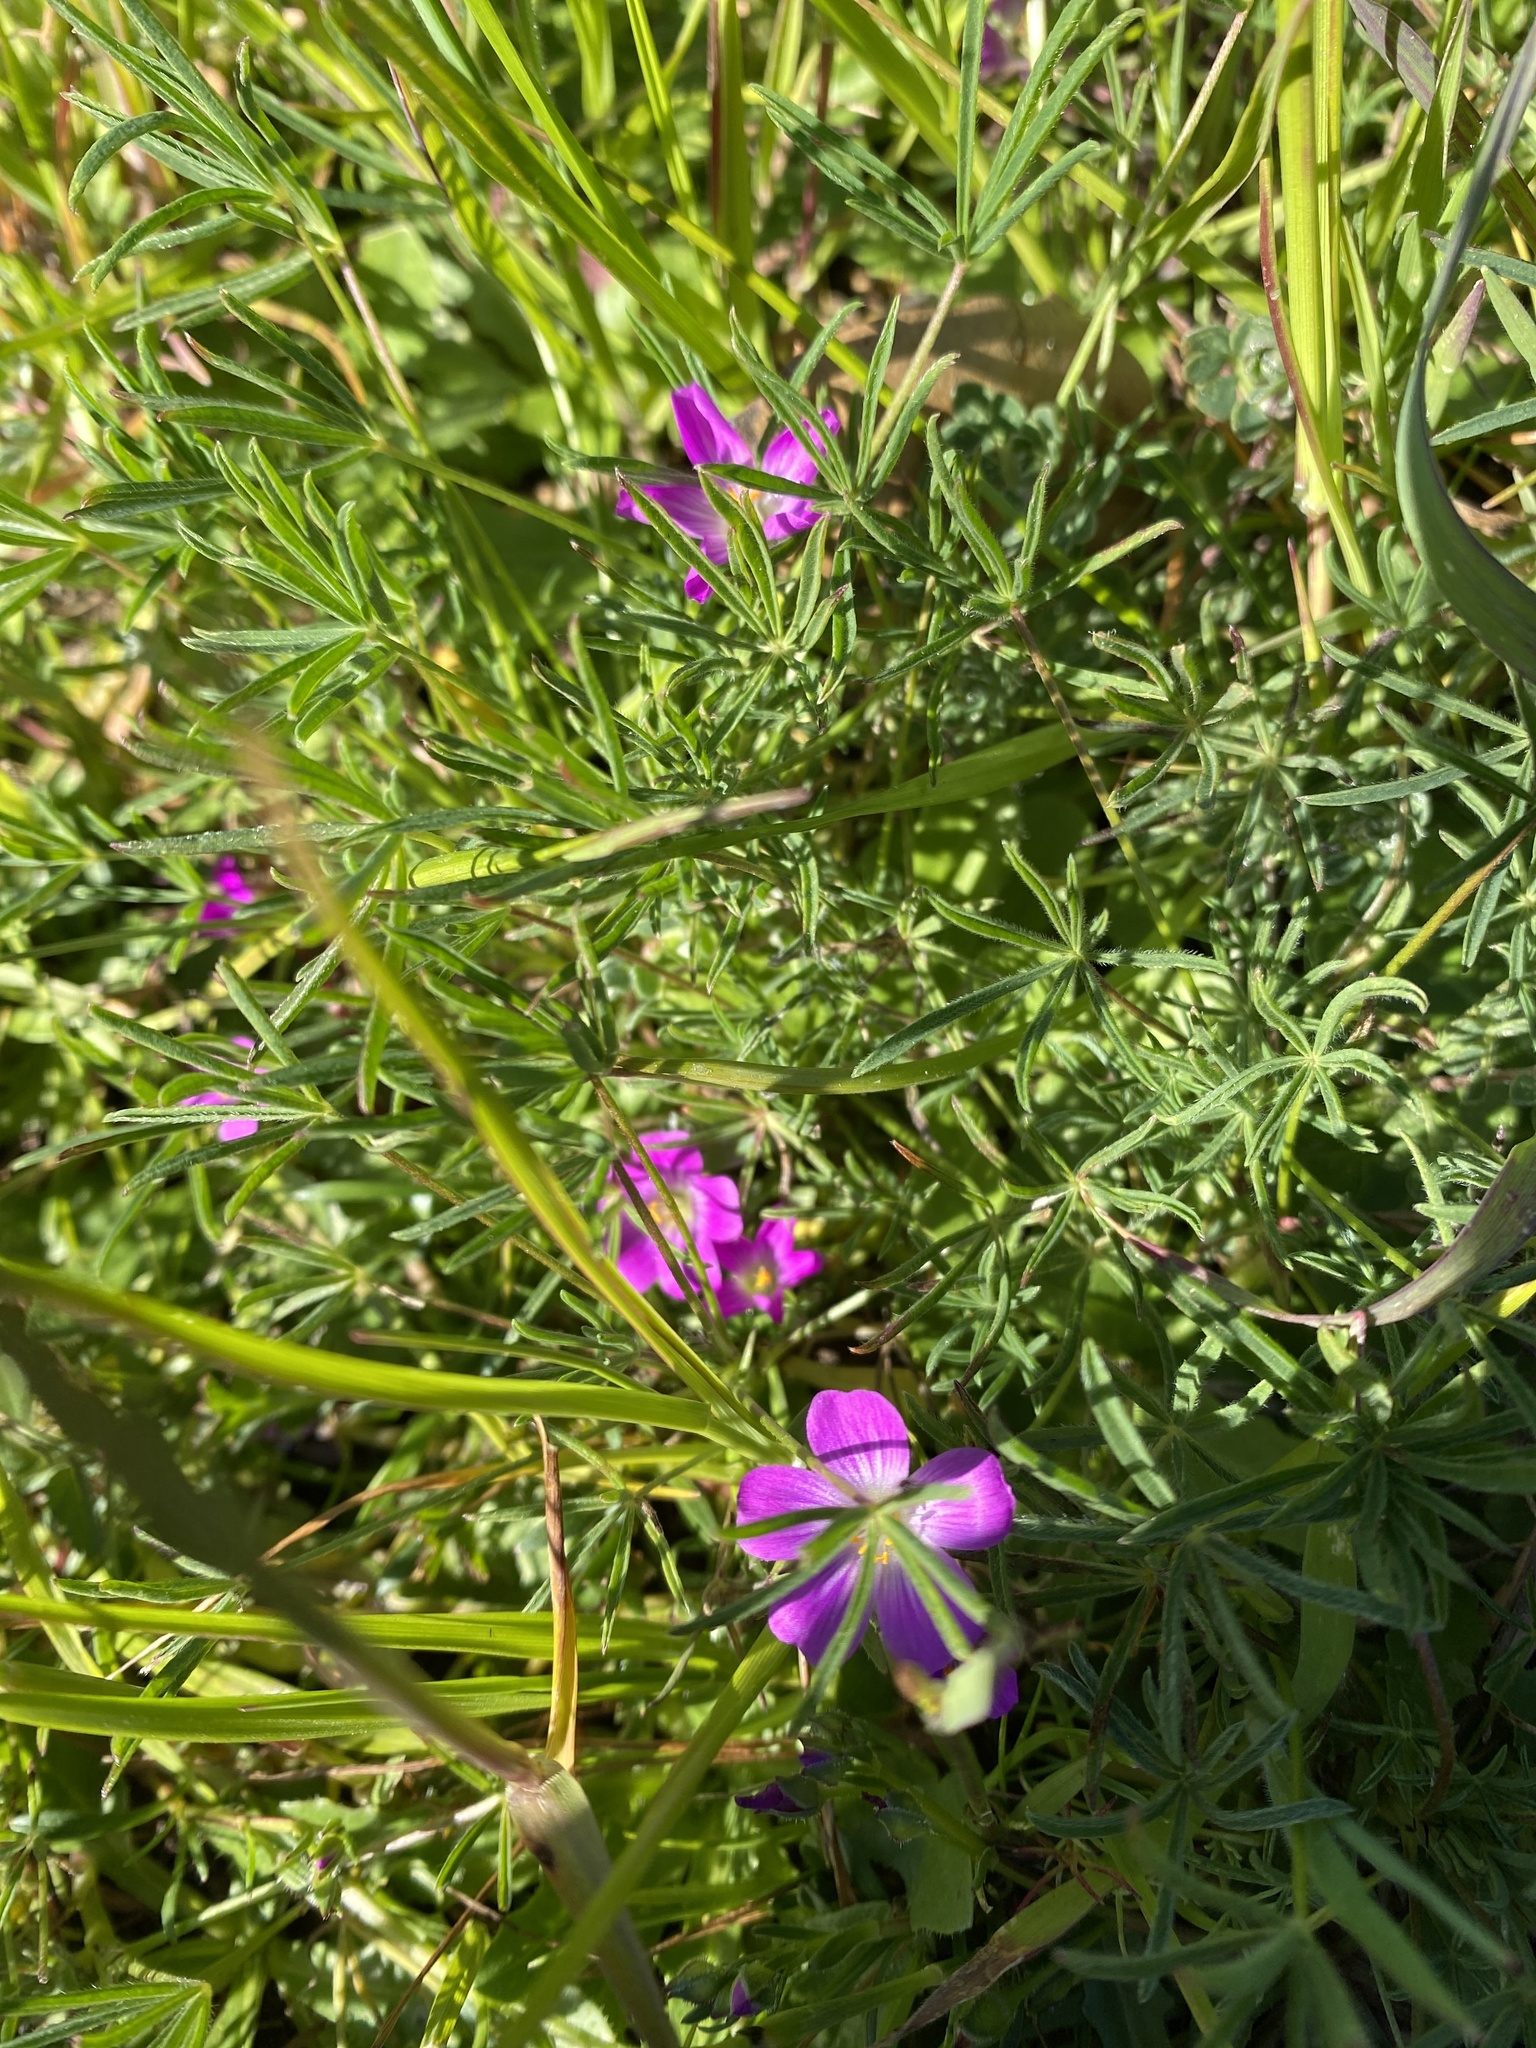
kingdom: Plantae
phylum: Tracheophyta
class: Magnoliopsida
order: Caryophyllales
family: Montiaceae
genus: Calandrinia
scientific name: Calandrinia menziesii
